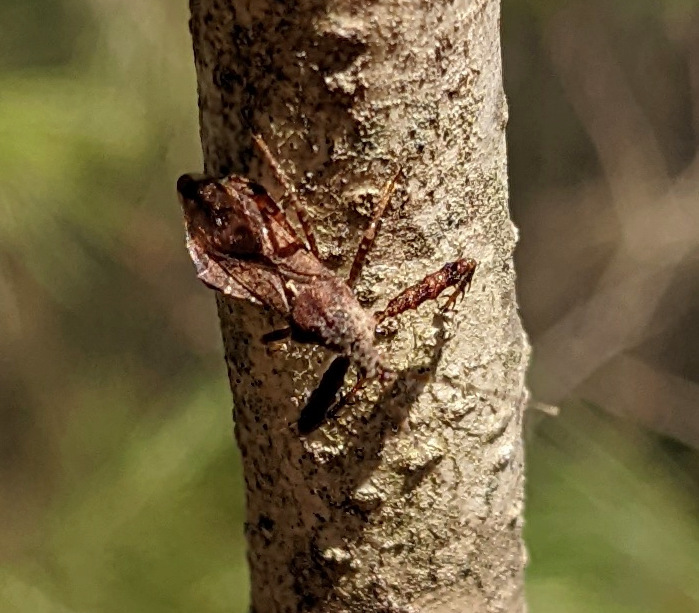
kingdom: Animalia
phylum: Arthropoda
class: Insecta
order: Hemiptera
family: Reduviidae
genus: Sinea
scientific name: Sinea spinipes
